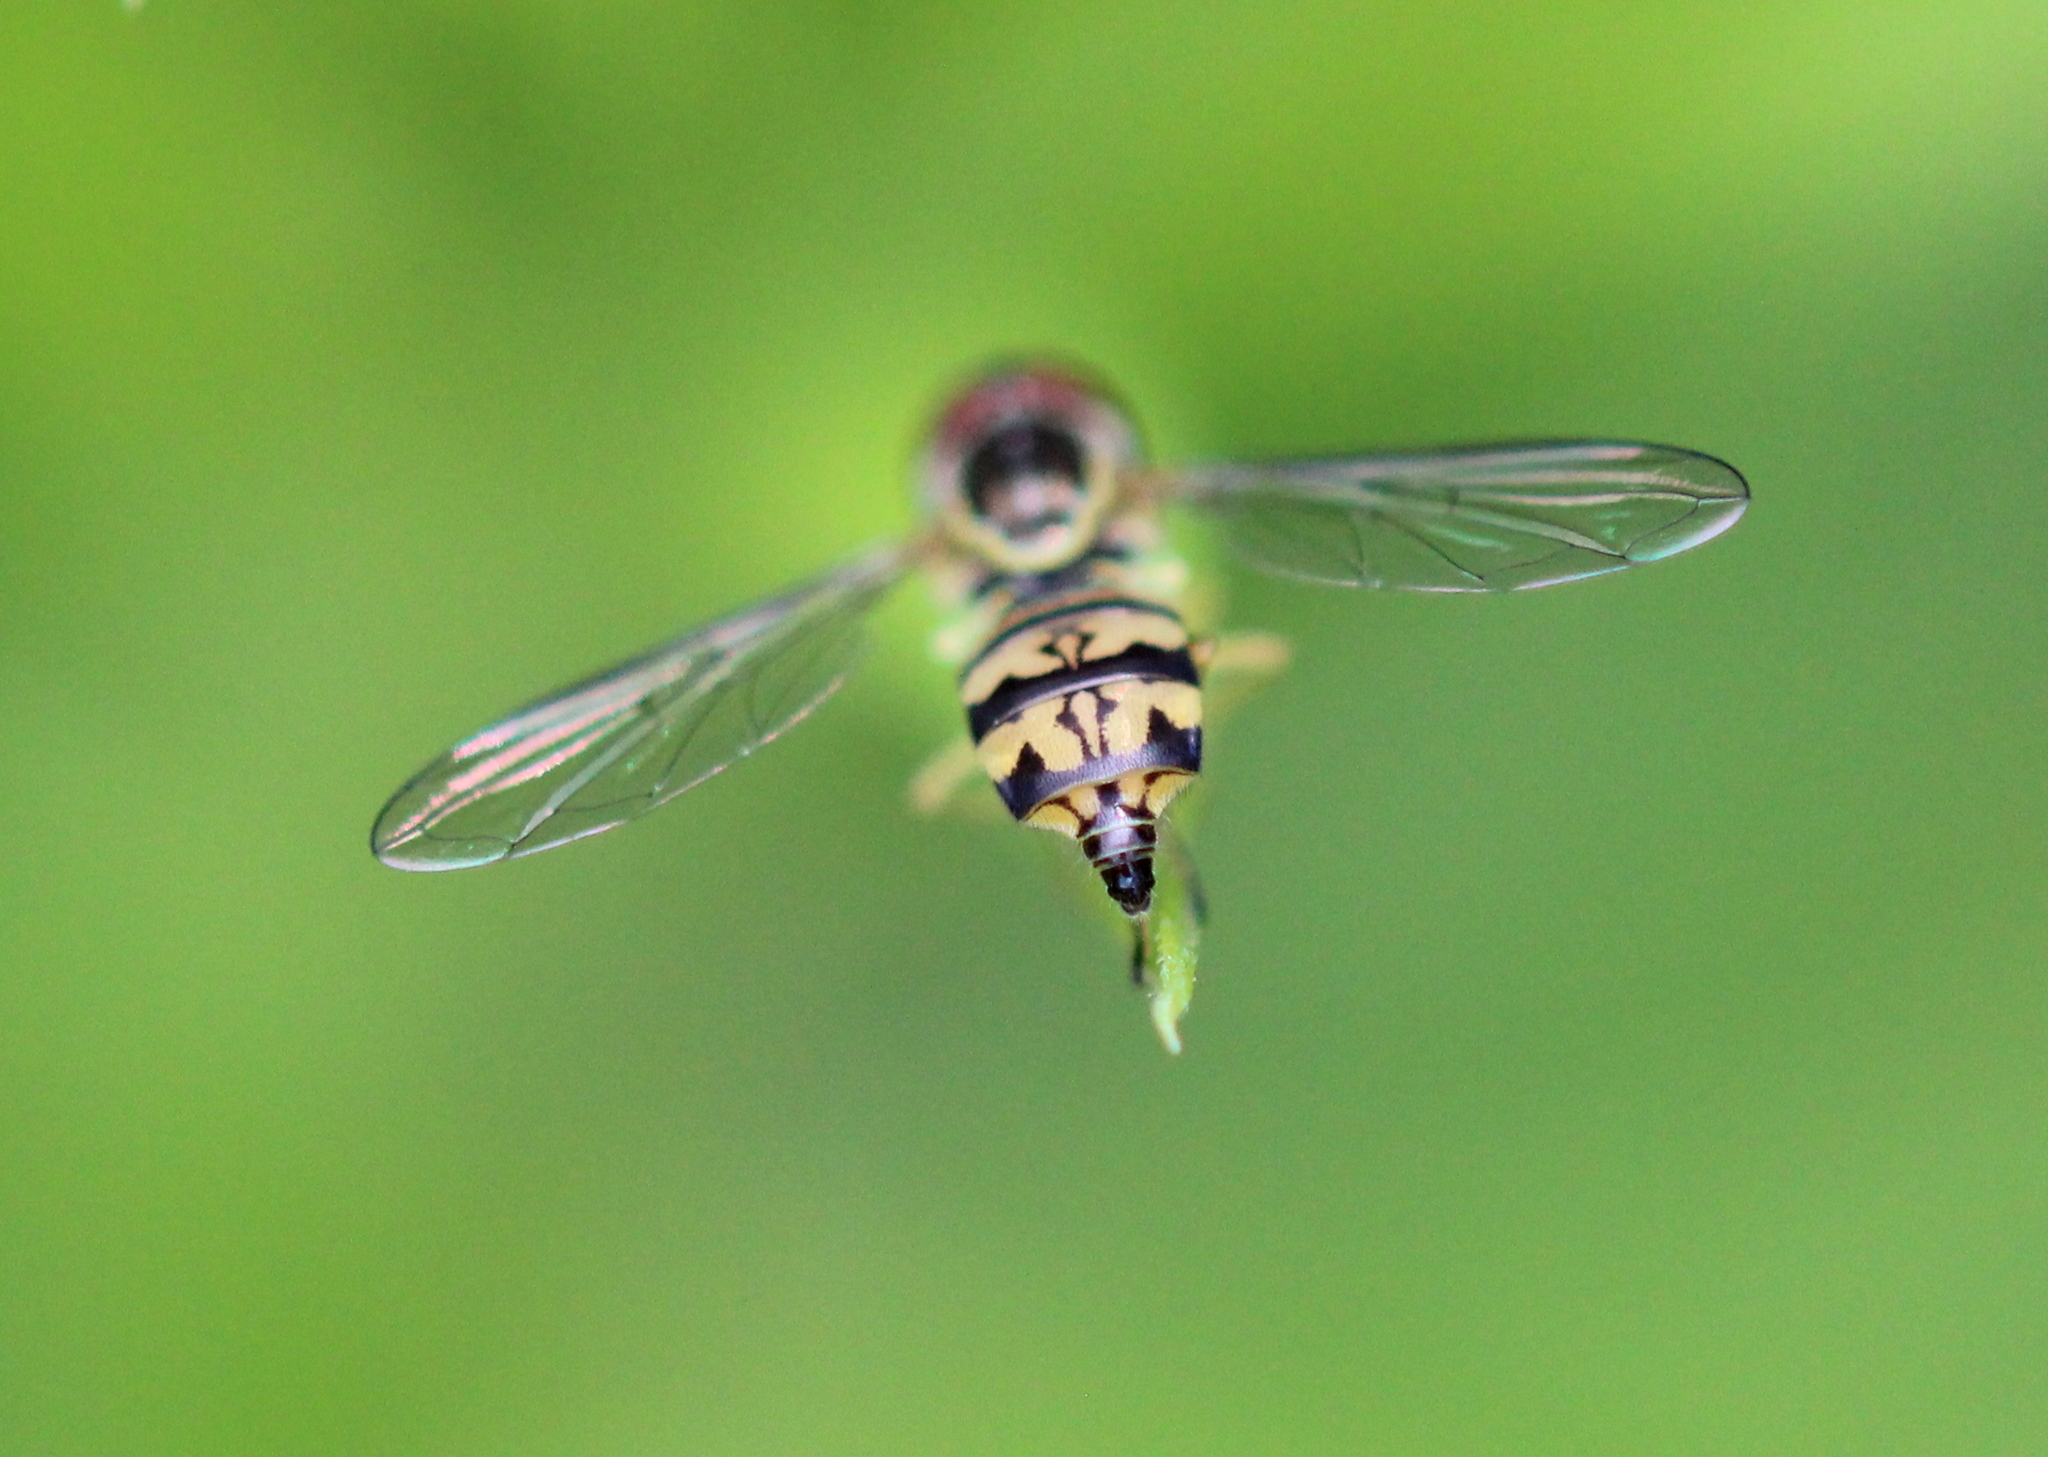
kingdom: Animalia
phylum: Arthropoda
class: Insecta
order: Diptera
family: Syrphidae
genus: Toxomerus
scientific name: Toxomerus geminatus
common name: Eastern calligrapher
